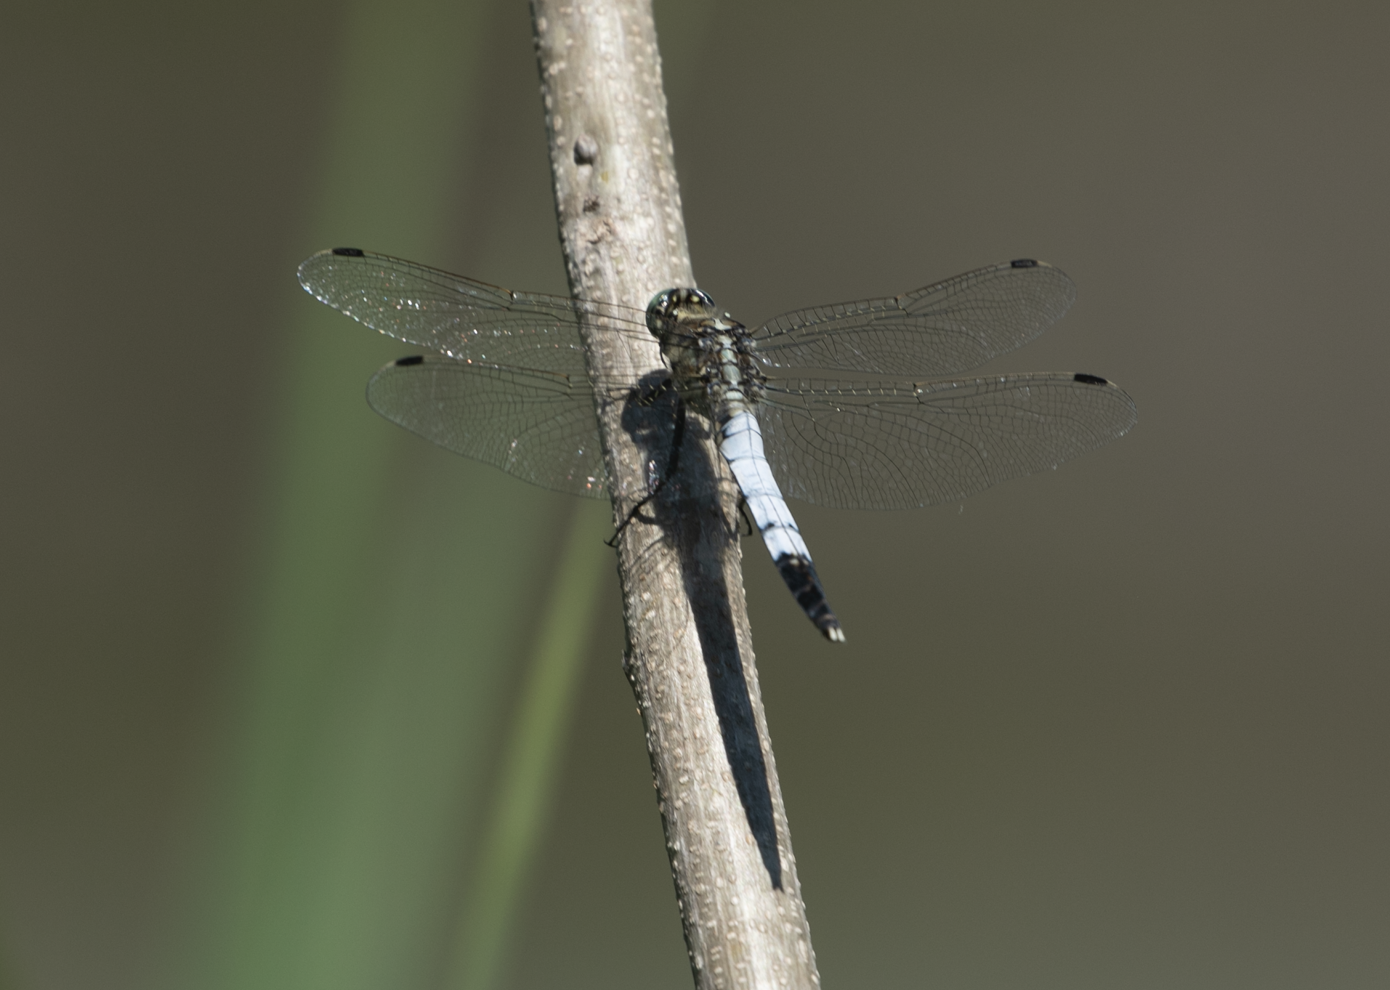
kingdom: Animalia
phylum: Arthropoda
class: Insecta
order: Odonata
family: Libellulidae
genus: Orthetrum
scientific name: Orthetrum albistylum
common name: White-tailed skimmer
